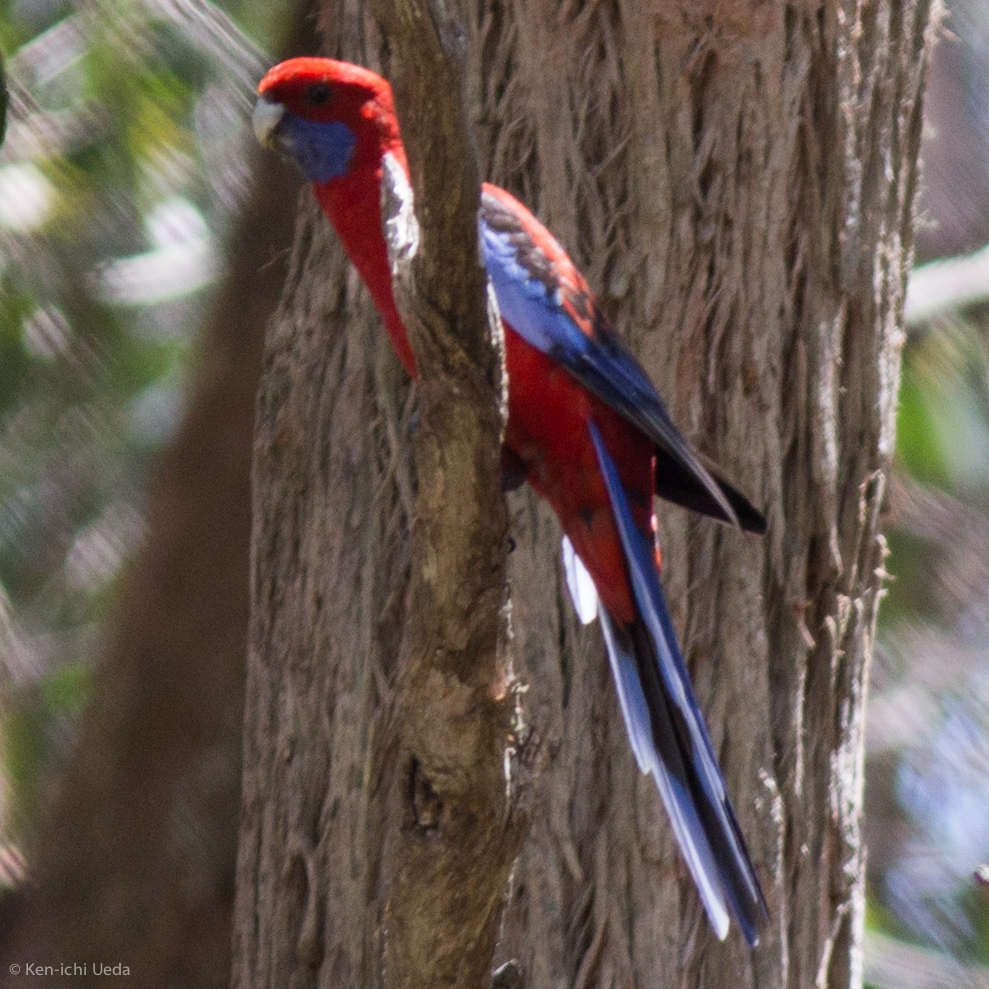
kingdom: Animalia
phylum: Chordata
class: Aves
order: Psittaciformes
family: Psittacidae
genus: Platycercus
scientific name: Platycercus elegans
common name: Crimson rosella
